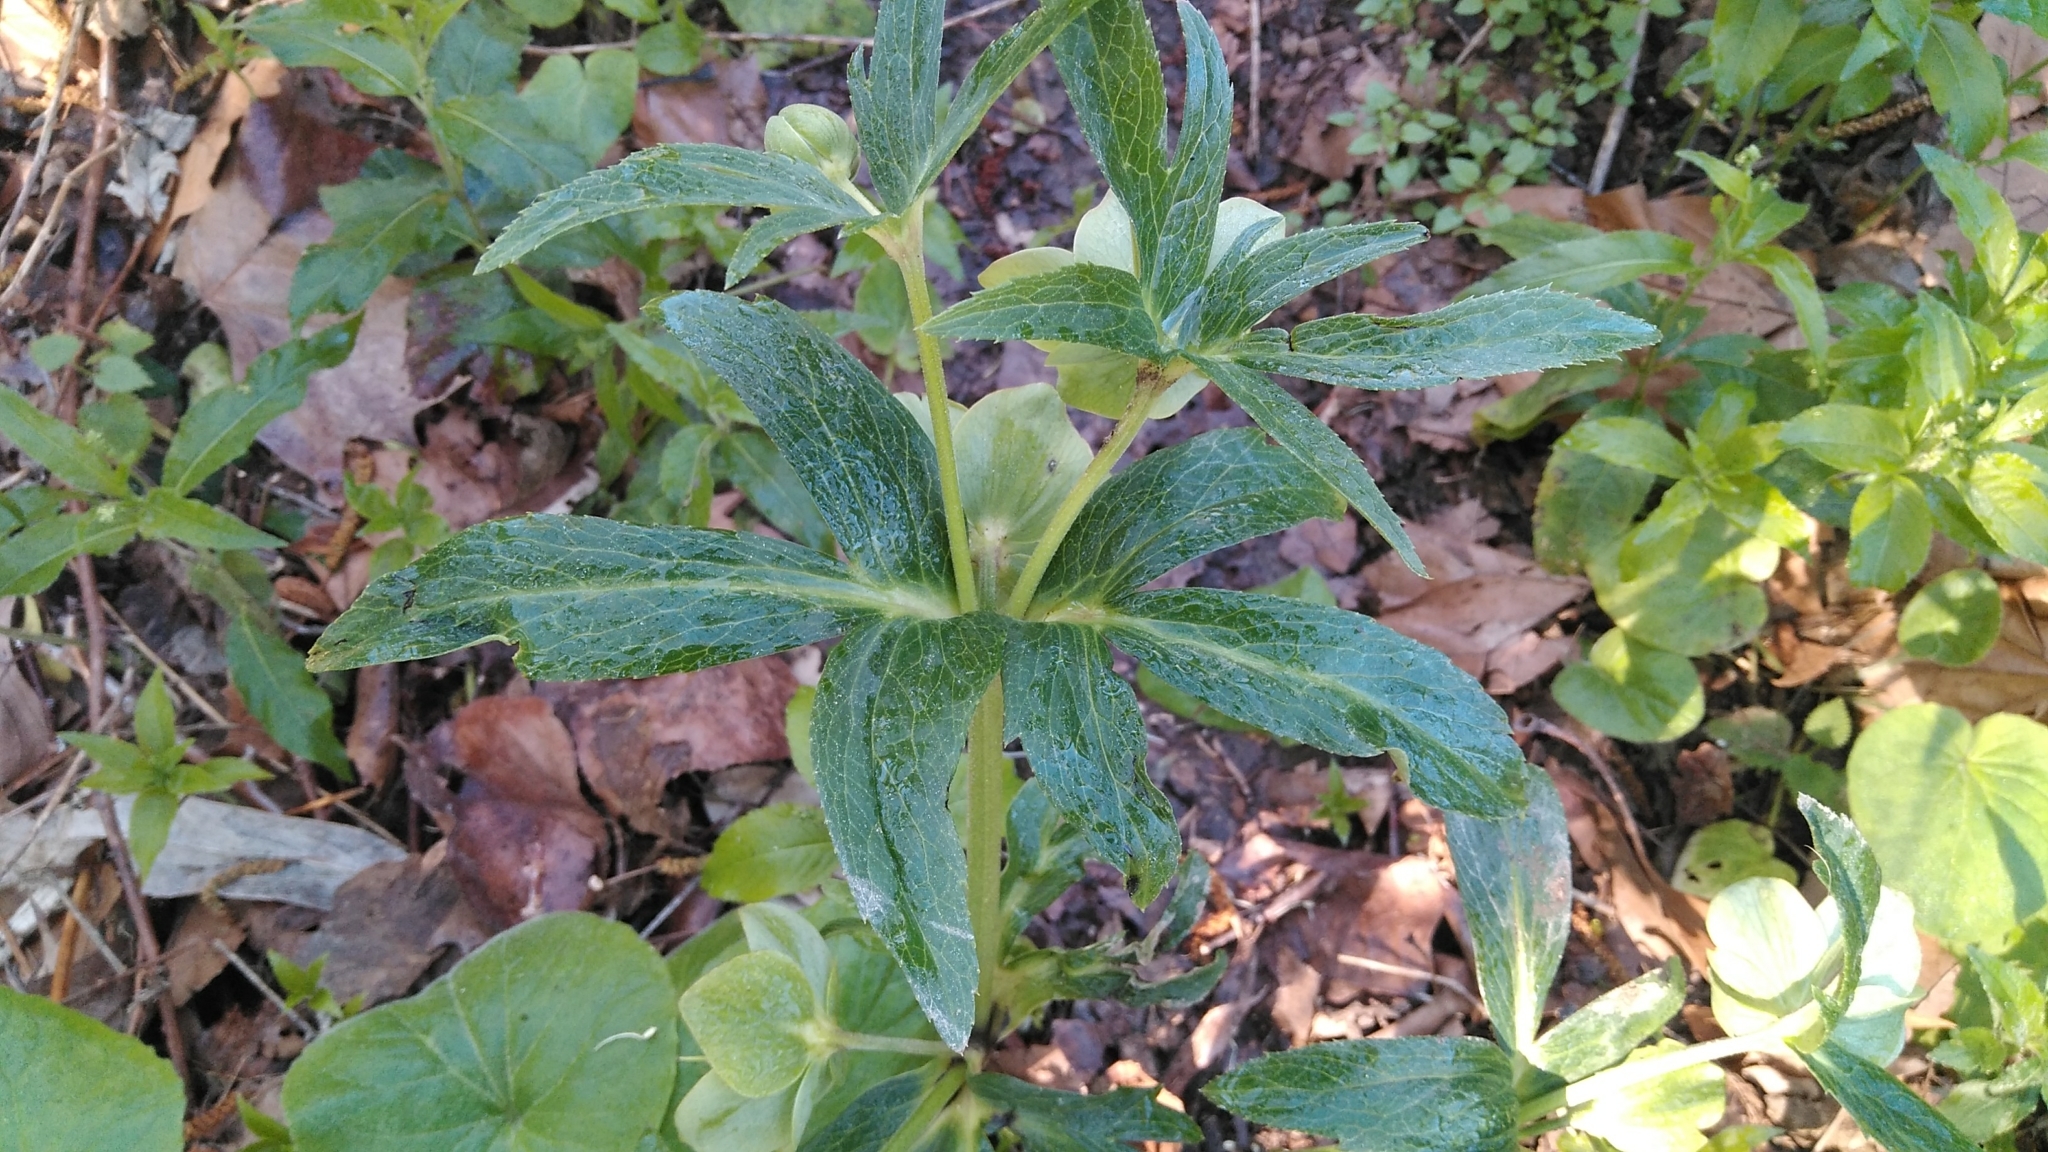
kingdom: Plantae
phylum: Tracheophyta
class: Magnoliopsida
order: Ranunculales
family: Ranunculaceae
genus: Helleborus
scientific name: Helleborus viridis
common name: Green hellebore
